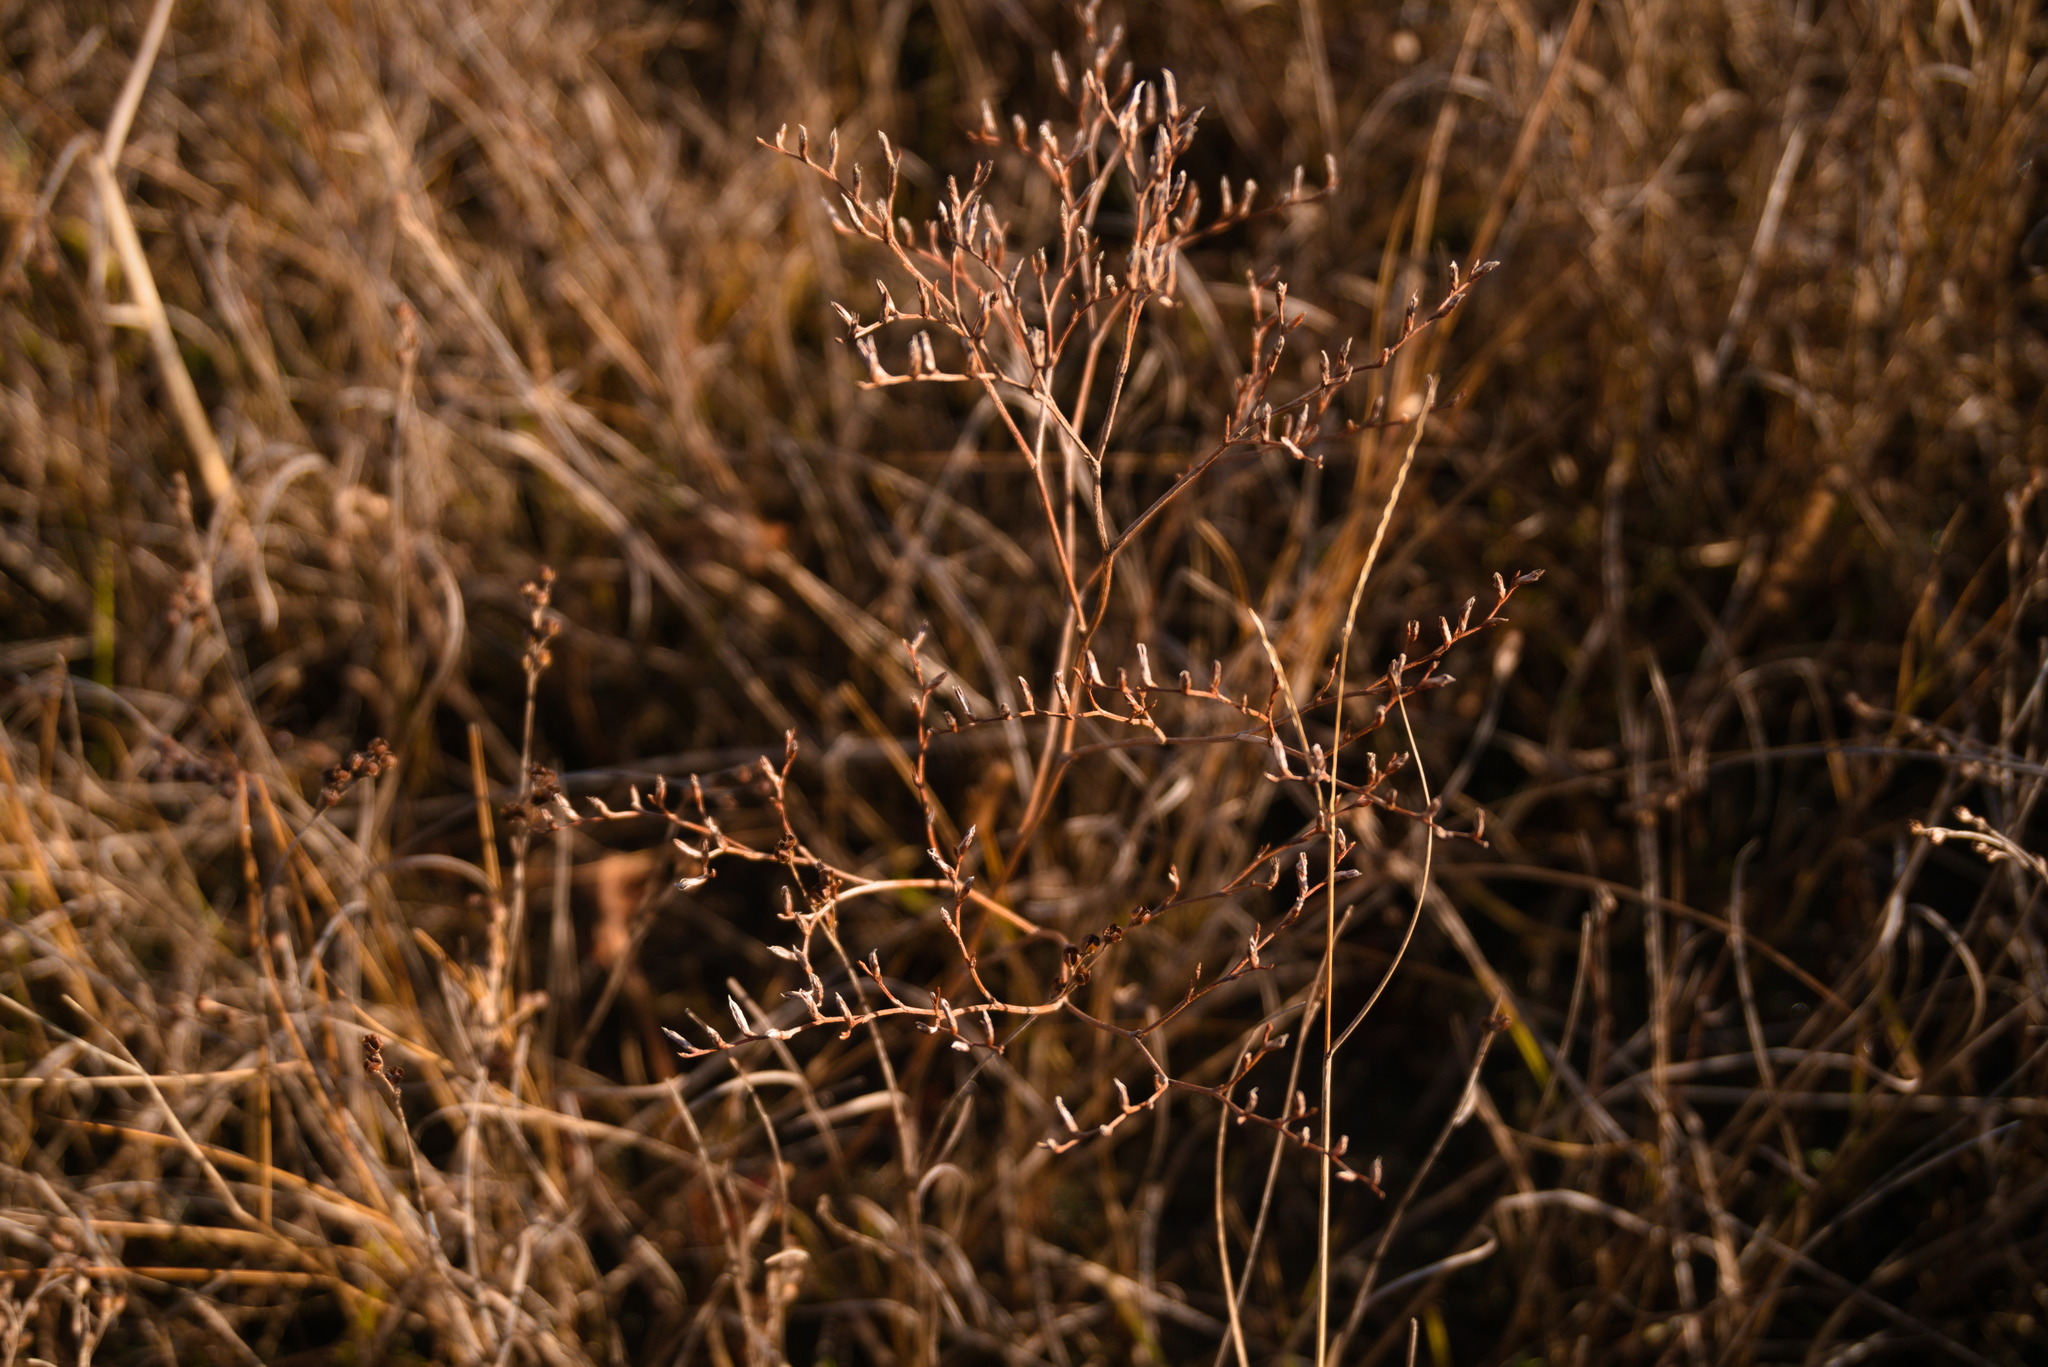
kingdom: Plantae
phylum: Tracheophyta
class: Magnoliopsida
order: Caryophyllales
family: Plumbaginaceae
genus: Limonium
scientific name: Limonium carolinianum
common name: Carolina sea lavender
